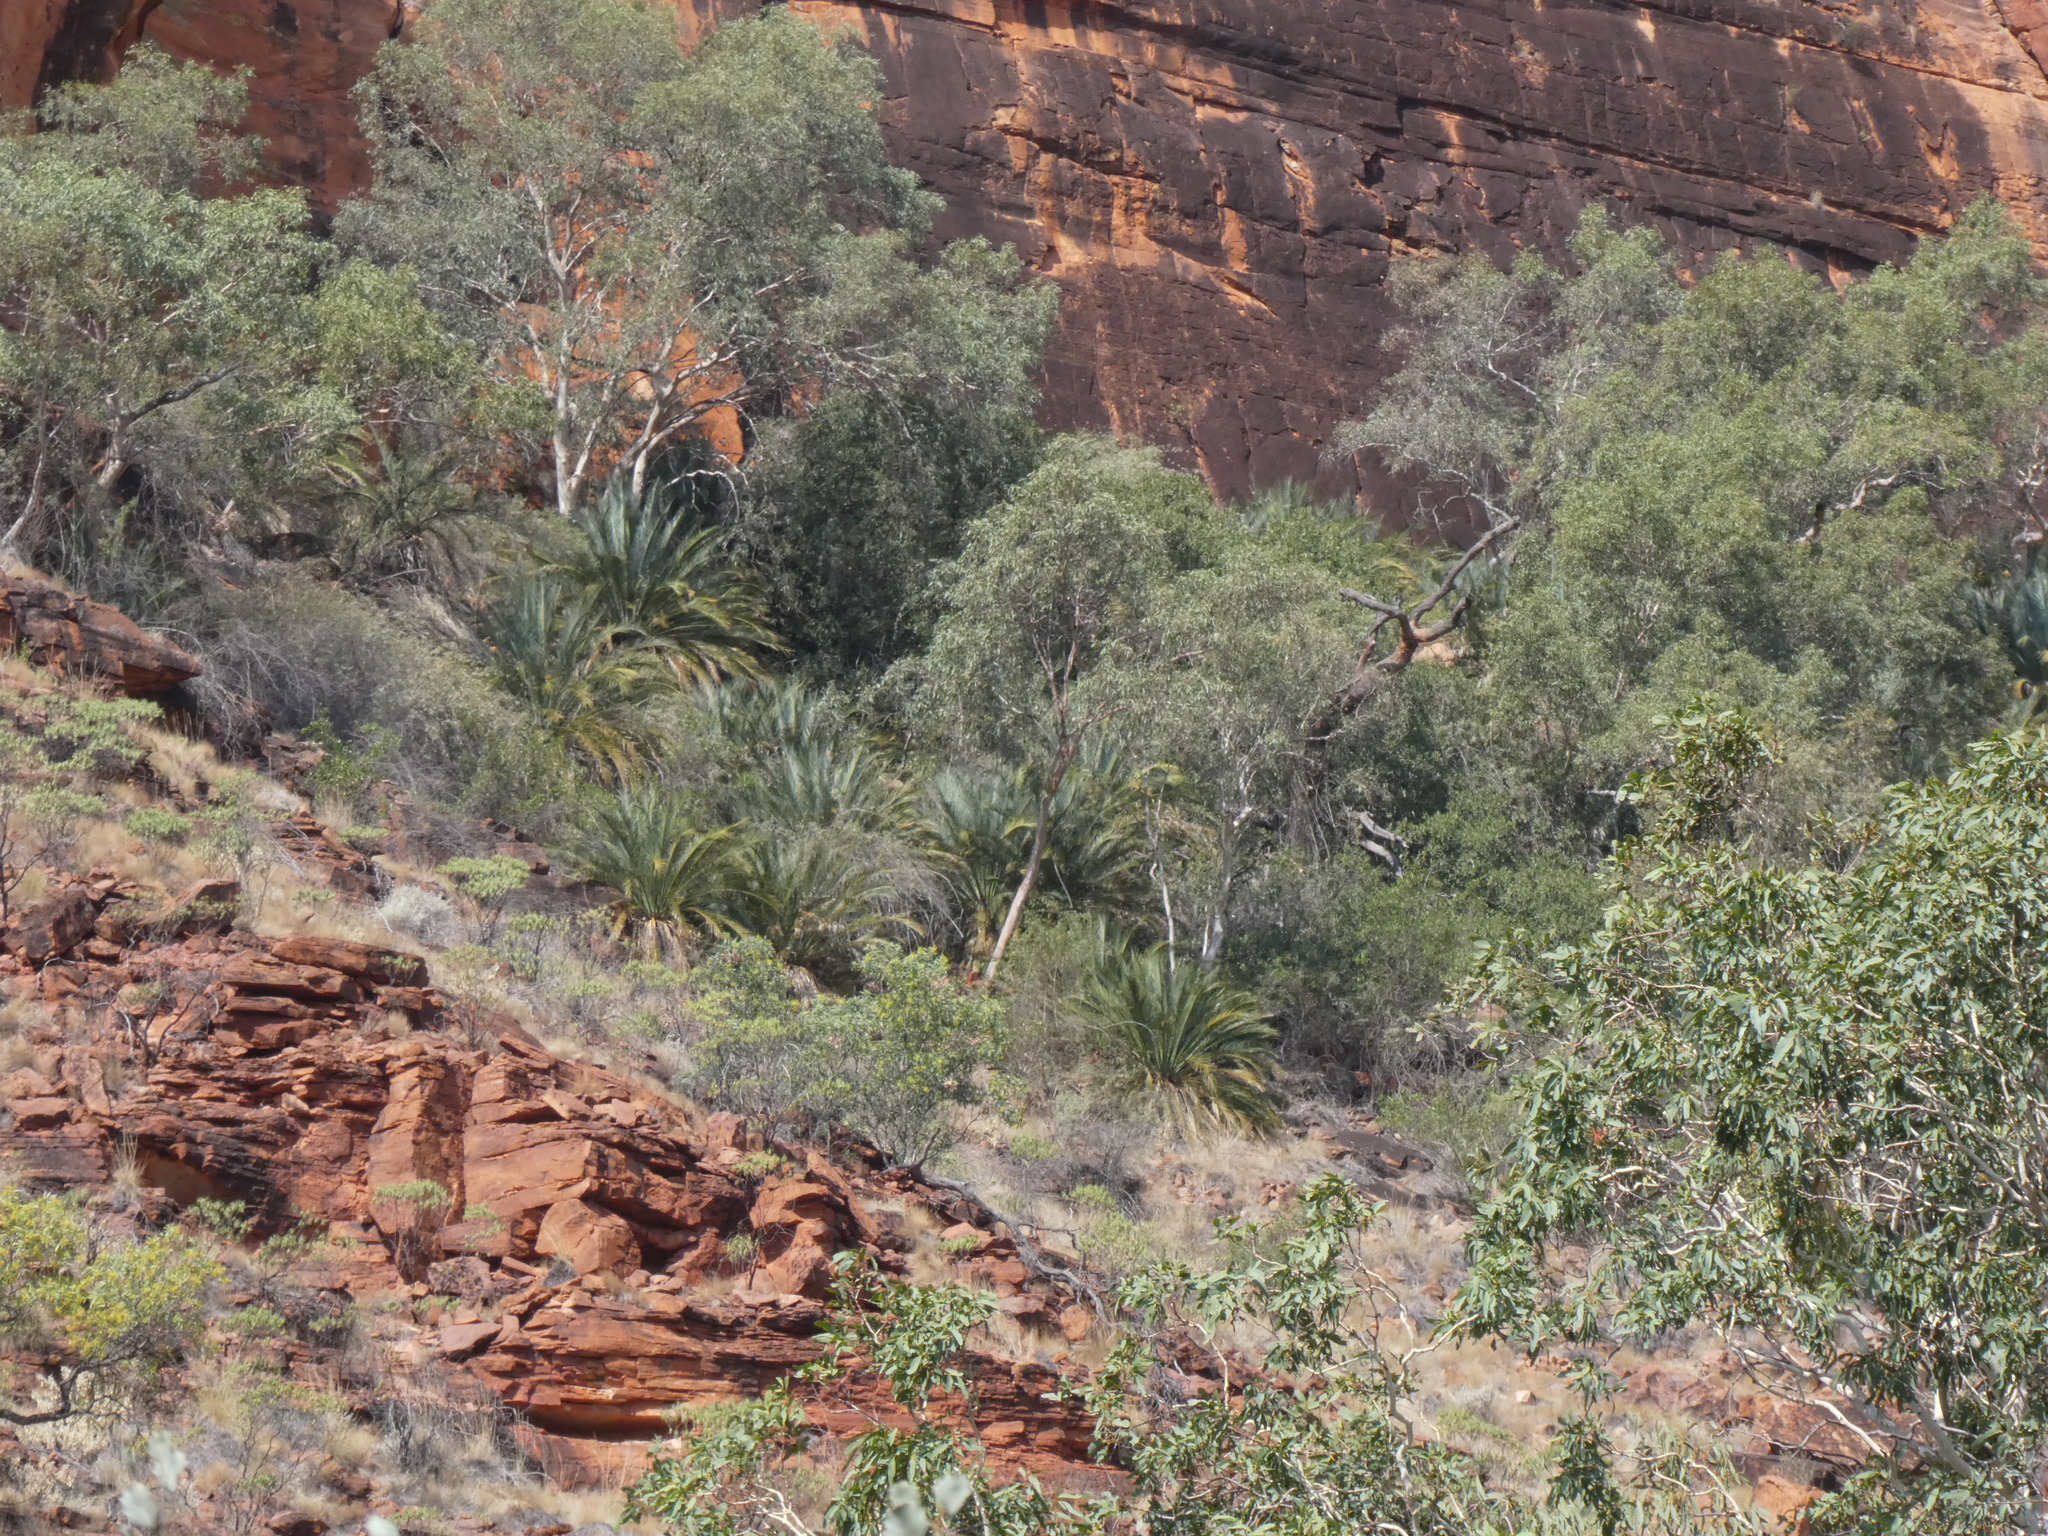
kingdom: Plantae
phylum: Tracheophyta
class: Cycadopsida
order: Cycadales
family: Zamiaceae
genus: Macrozamia
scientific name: Macrozamia macdonnellii
